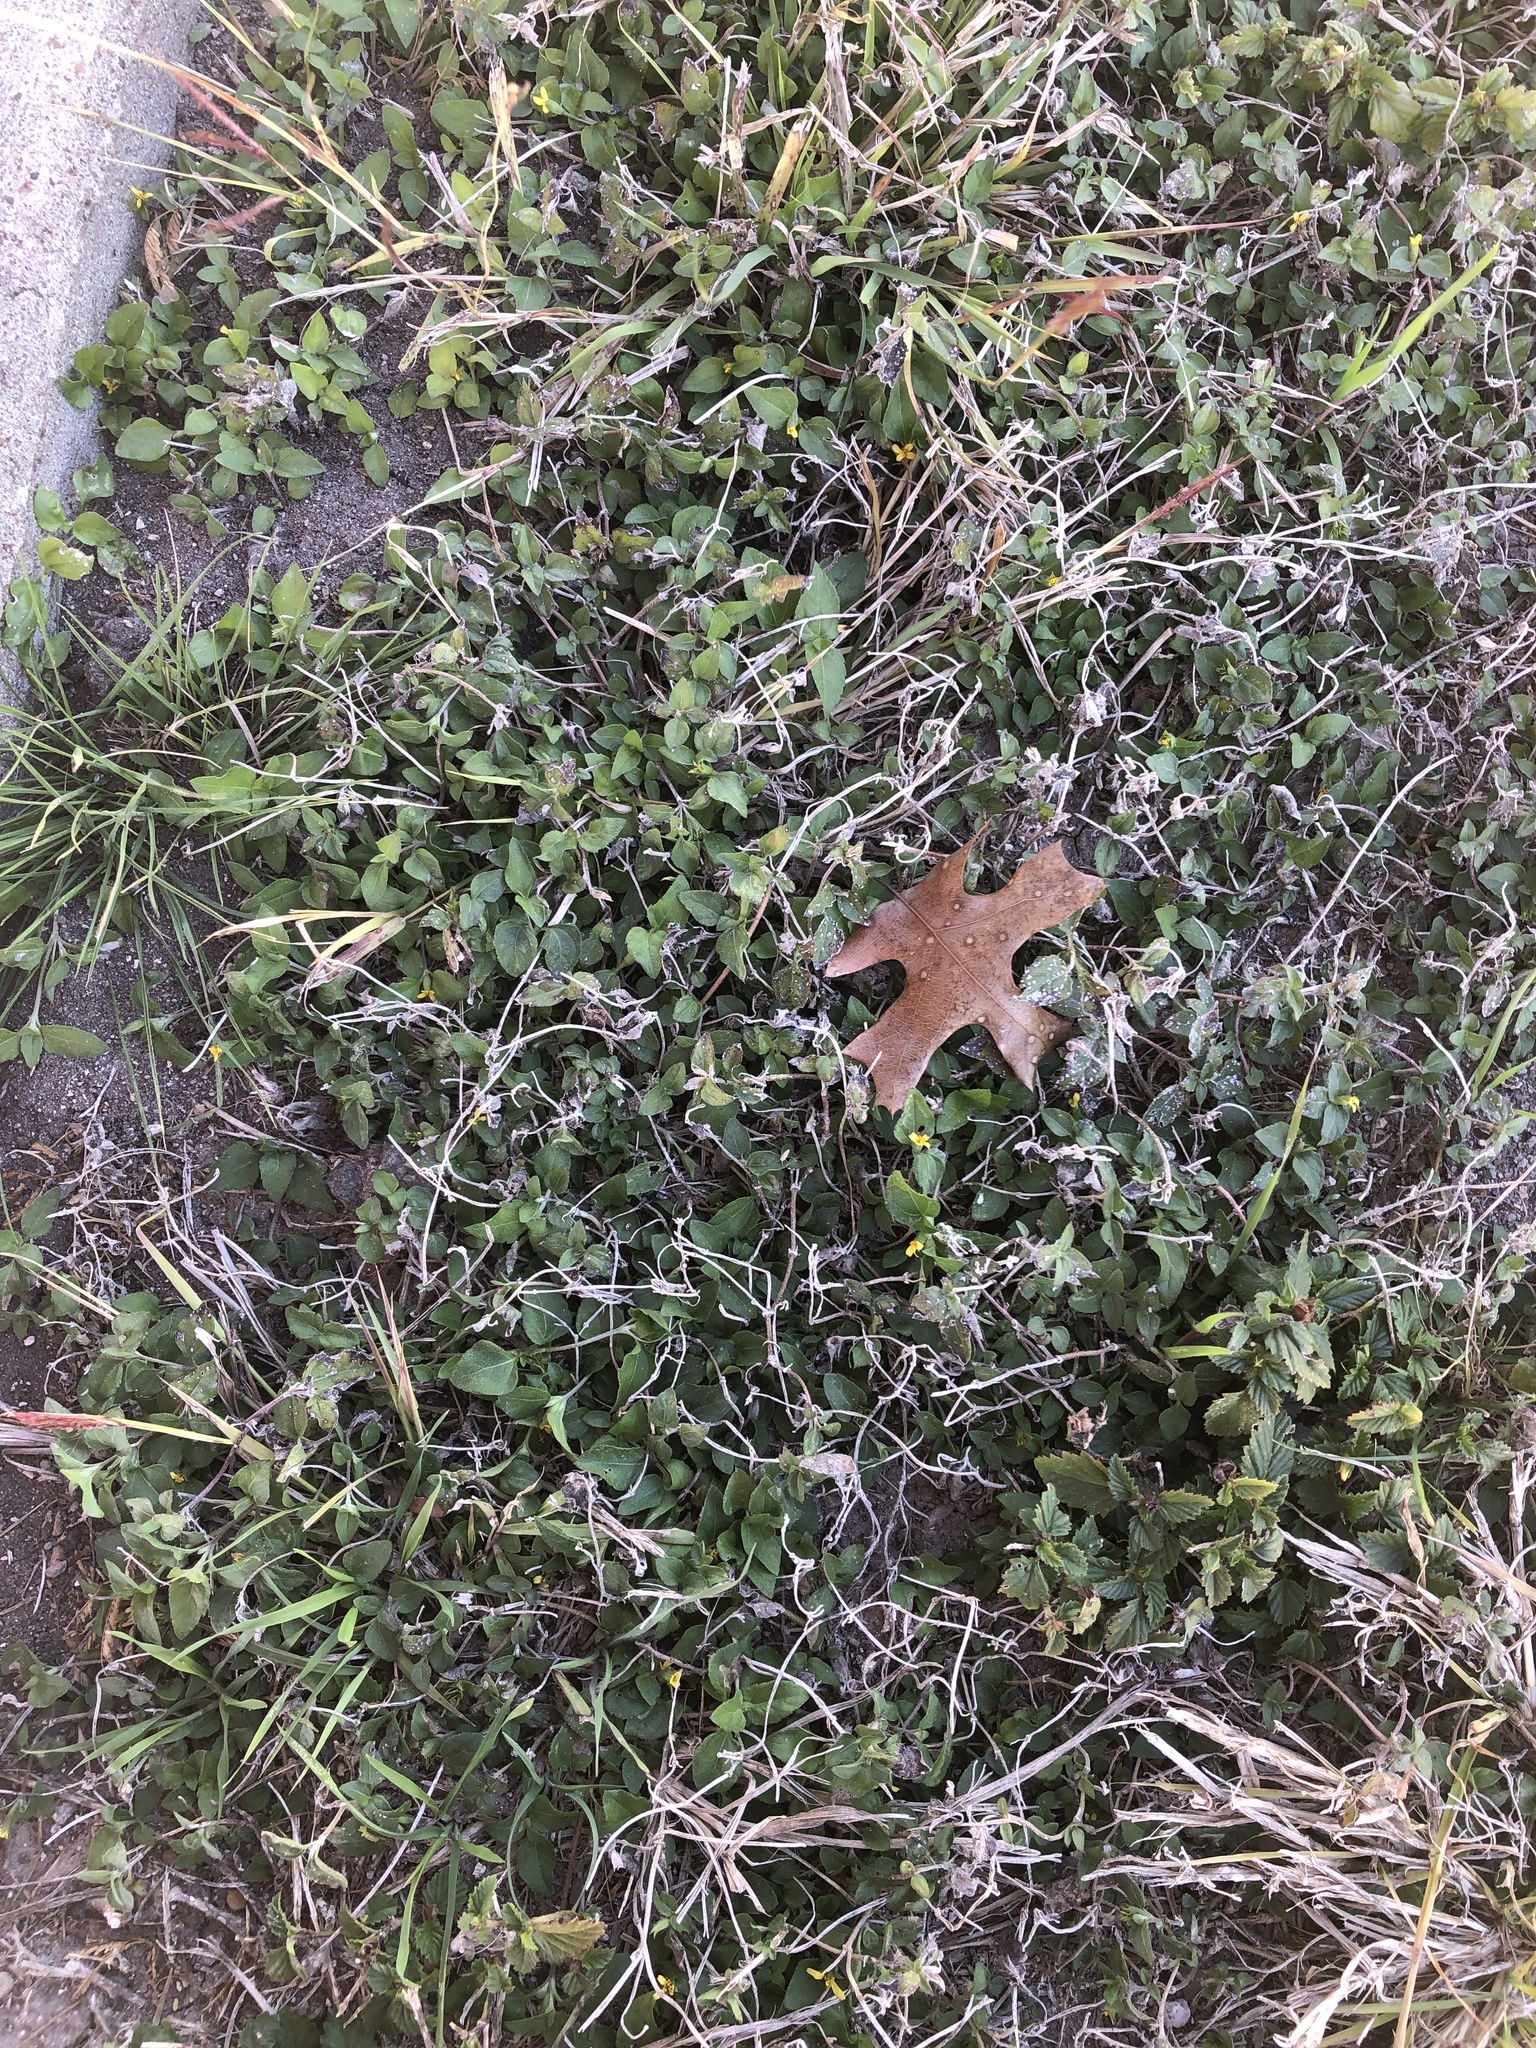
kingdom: Plantae
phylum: Tracheophyta
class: Magnoliopsida
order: Asterales
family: Asteraceae
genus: Calyptocarpus
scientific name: Calyptocarpus vialis
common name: Straggler daisy
